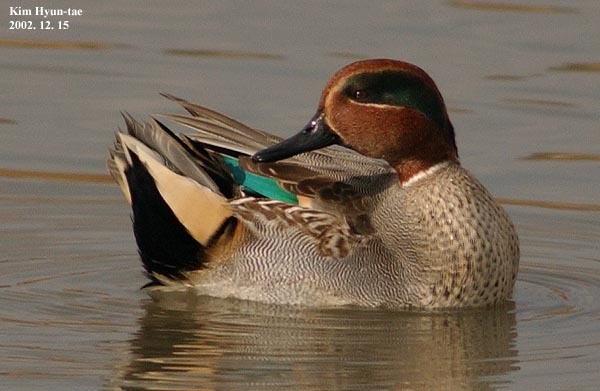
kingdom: Animalia
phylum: Chordata
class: Aves
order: Anseriformes
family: Anatidae
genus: Anas
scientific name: Anas crecca
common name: Eurasian teal
